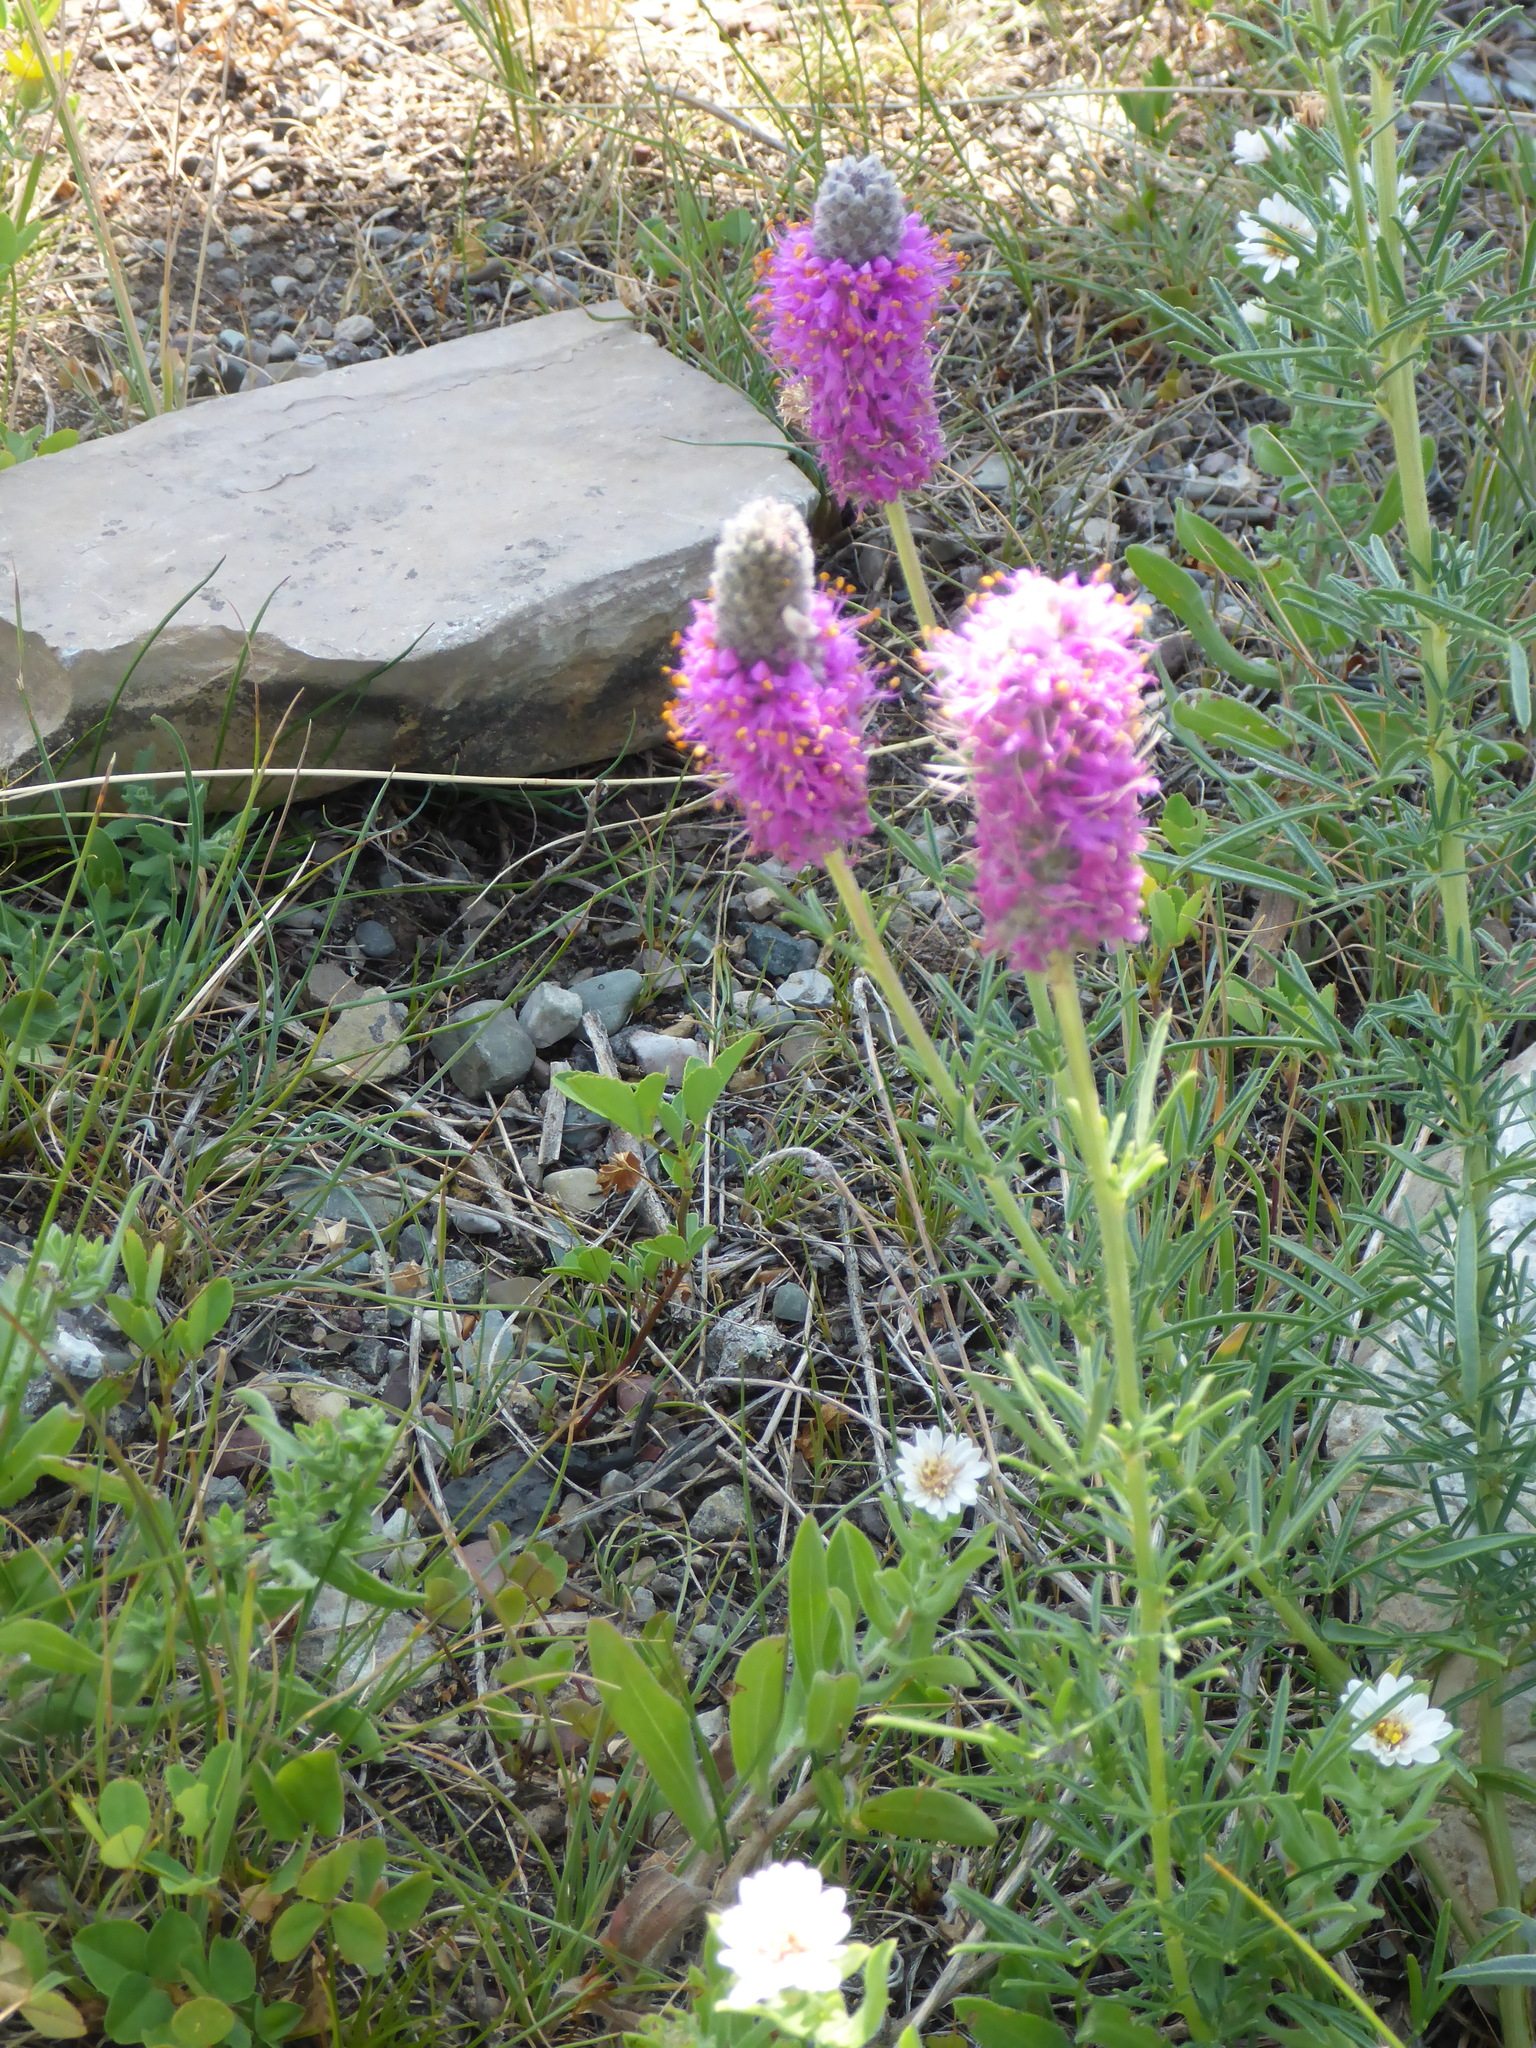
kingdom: Plantae
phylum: Tracheophyta
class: Magnoliopsida
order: Fabales
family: Fabaceae
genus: Dalea
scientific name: Dalea purpurea
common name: Purple prairie-clover
